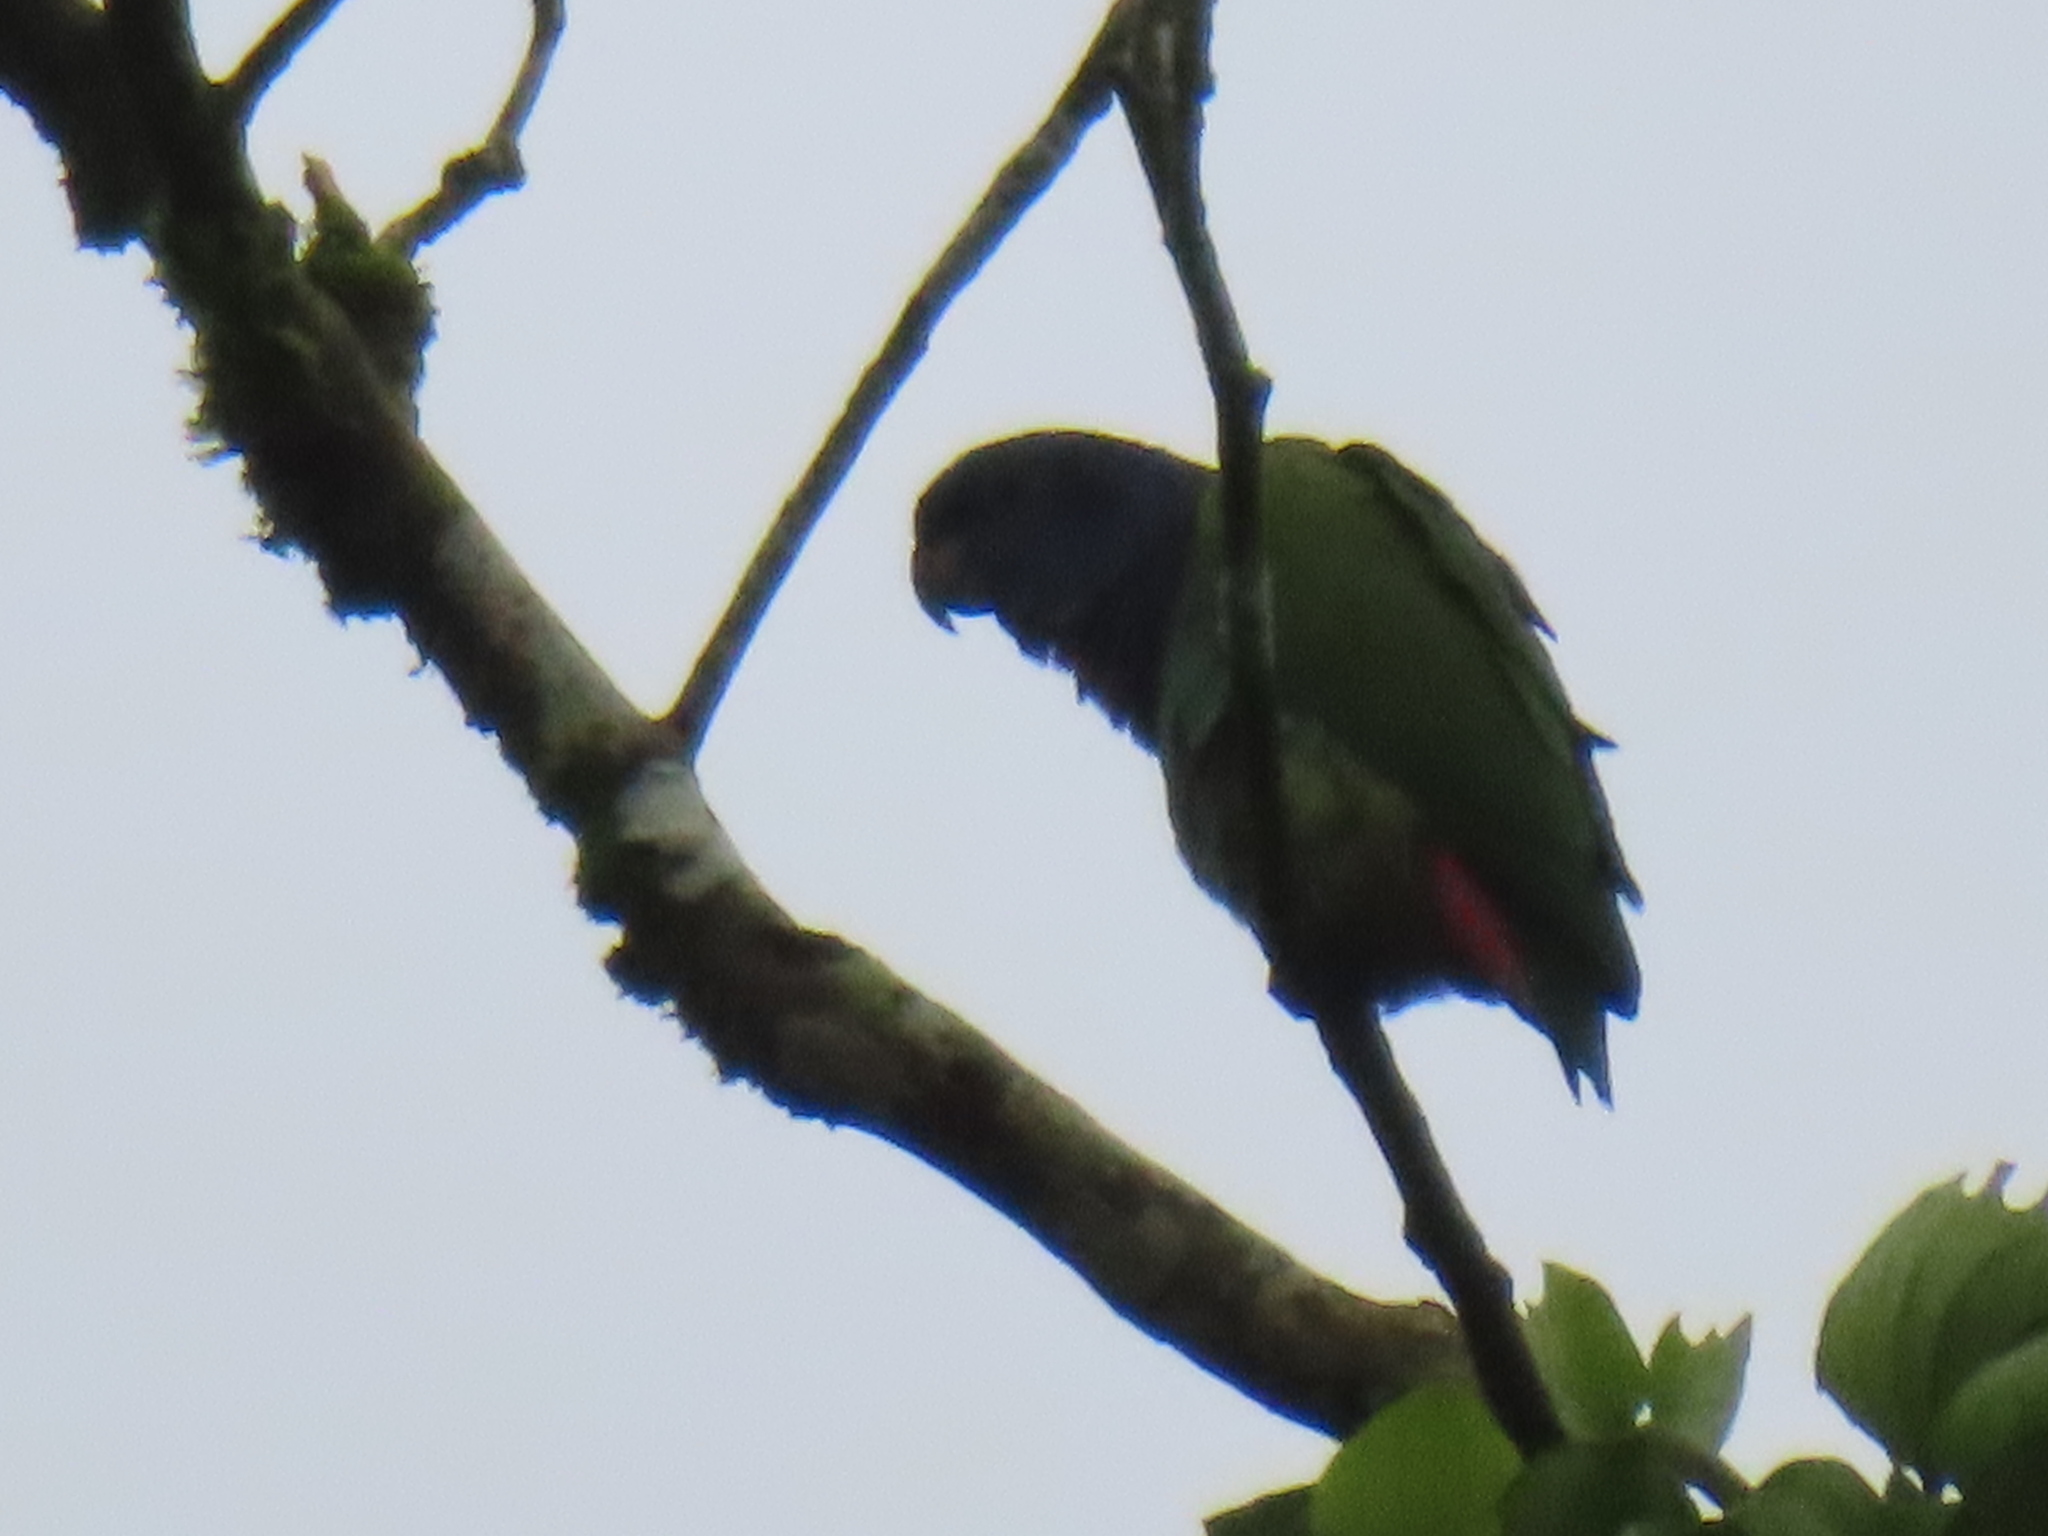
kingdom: Animalia
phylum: Chordata
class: Aves
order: Psittaciformes
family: Psittacidae
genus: Pionus
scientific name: Pionus menstruus
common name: Blue-headed parrot
